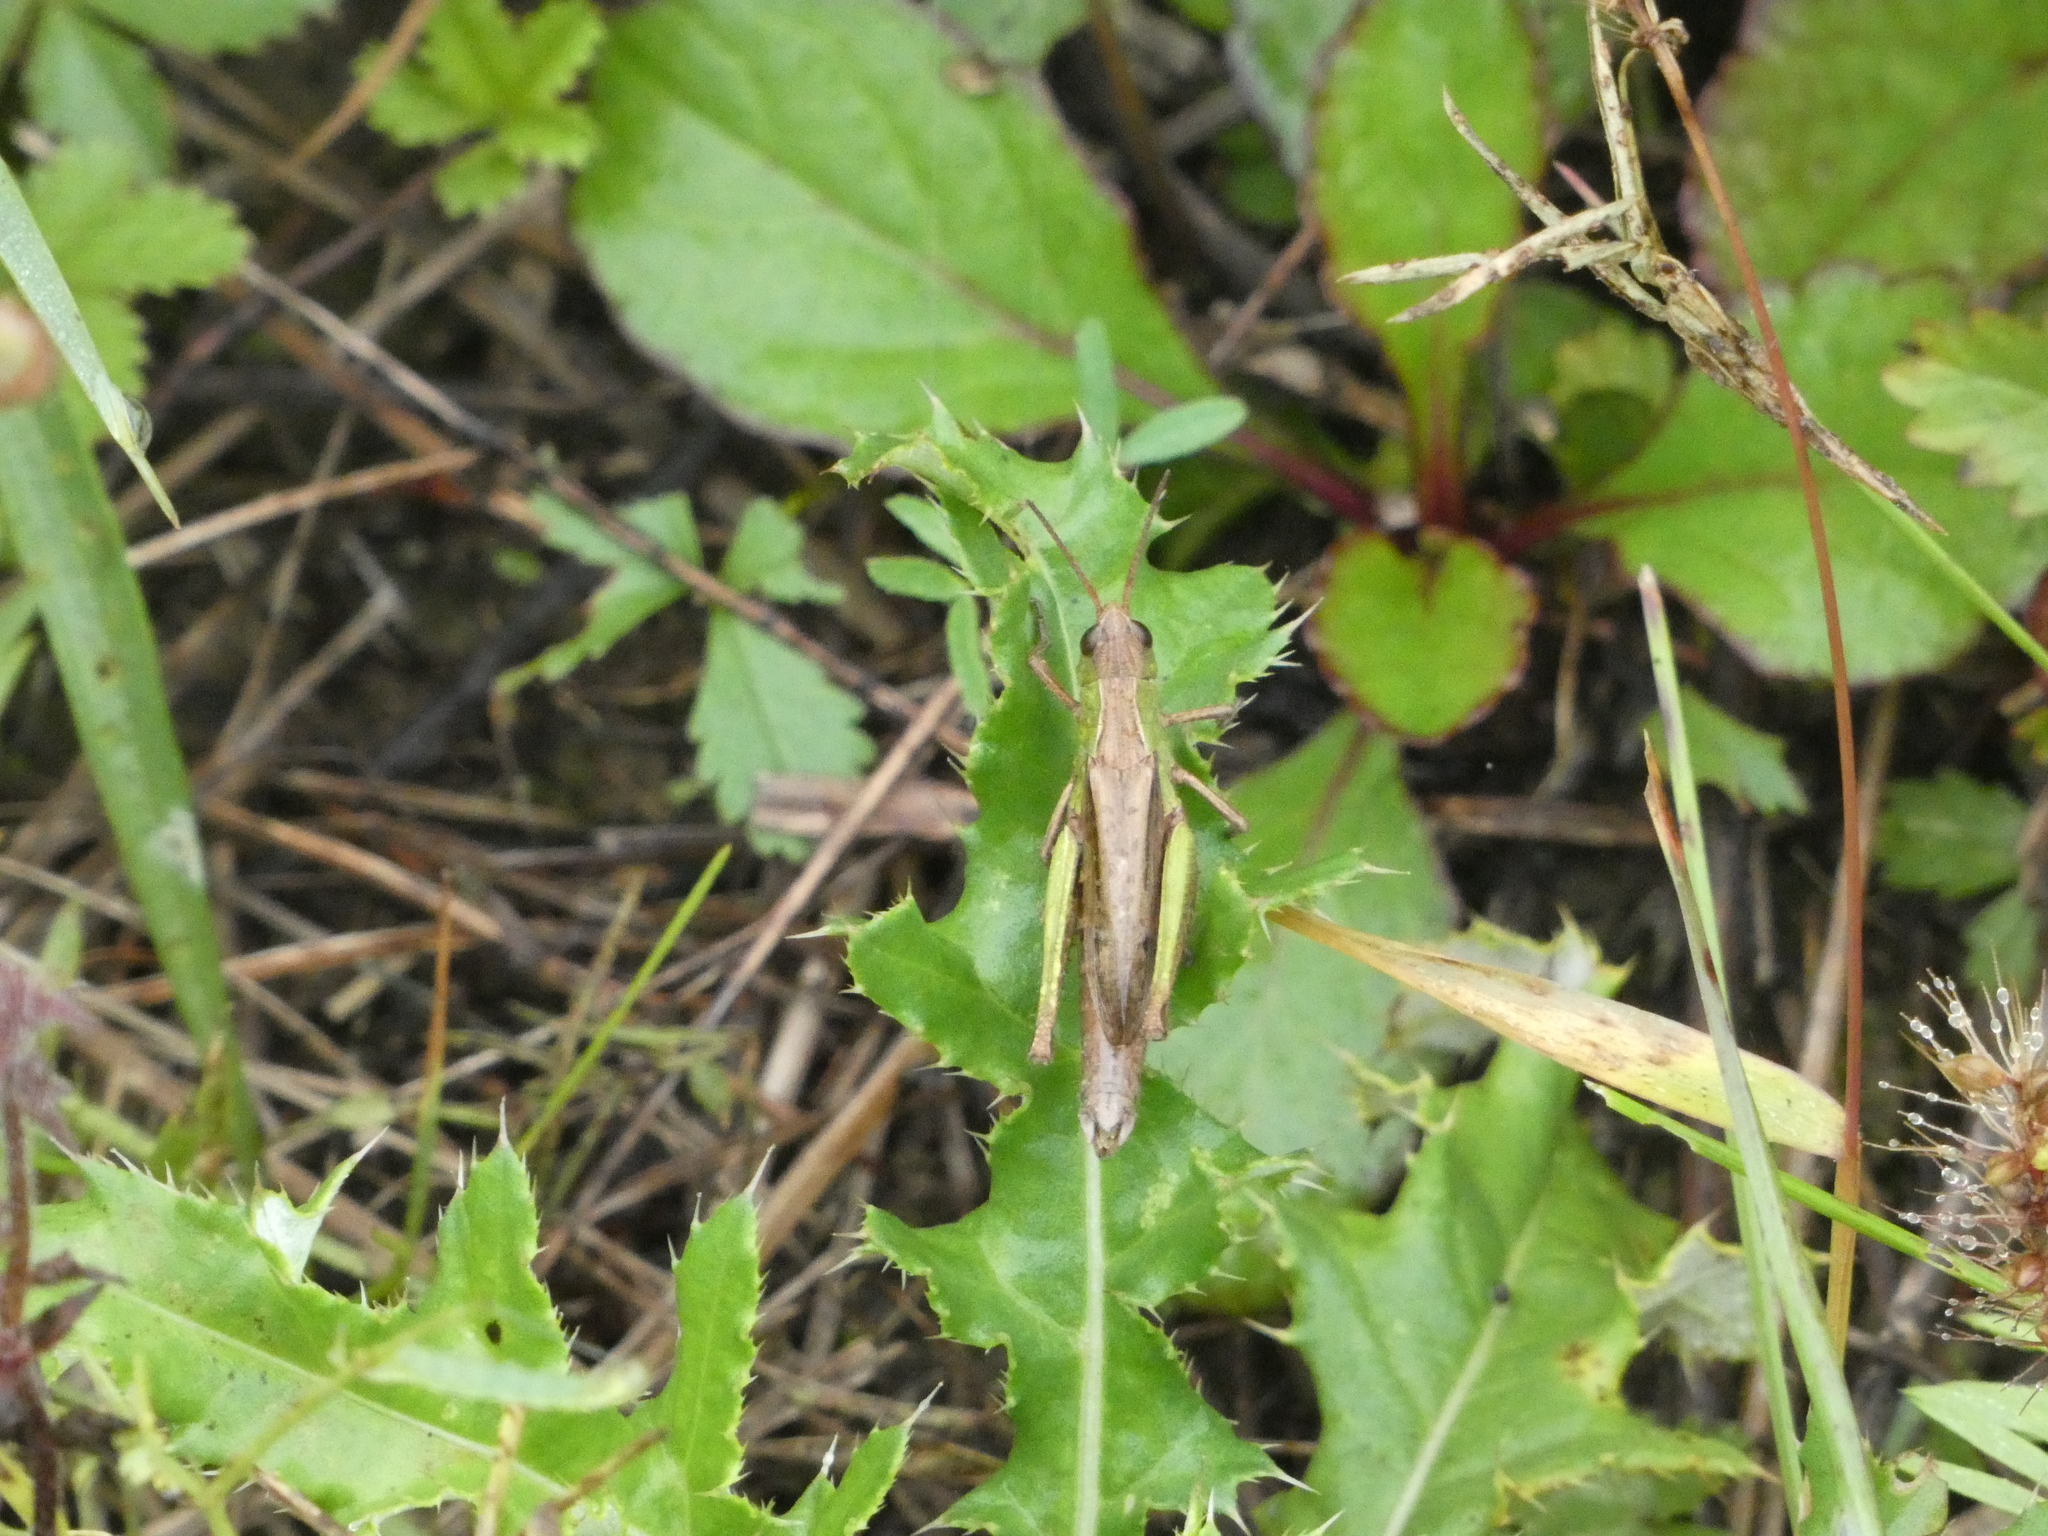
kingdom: Animalia
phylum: Arthropoda
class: Insecta
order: Orthoptera
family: Acrididae
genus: Chorthippus
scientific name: Chorthippus dorsatus
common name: Steppe grasshopper
